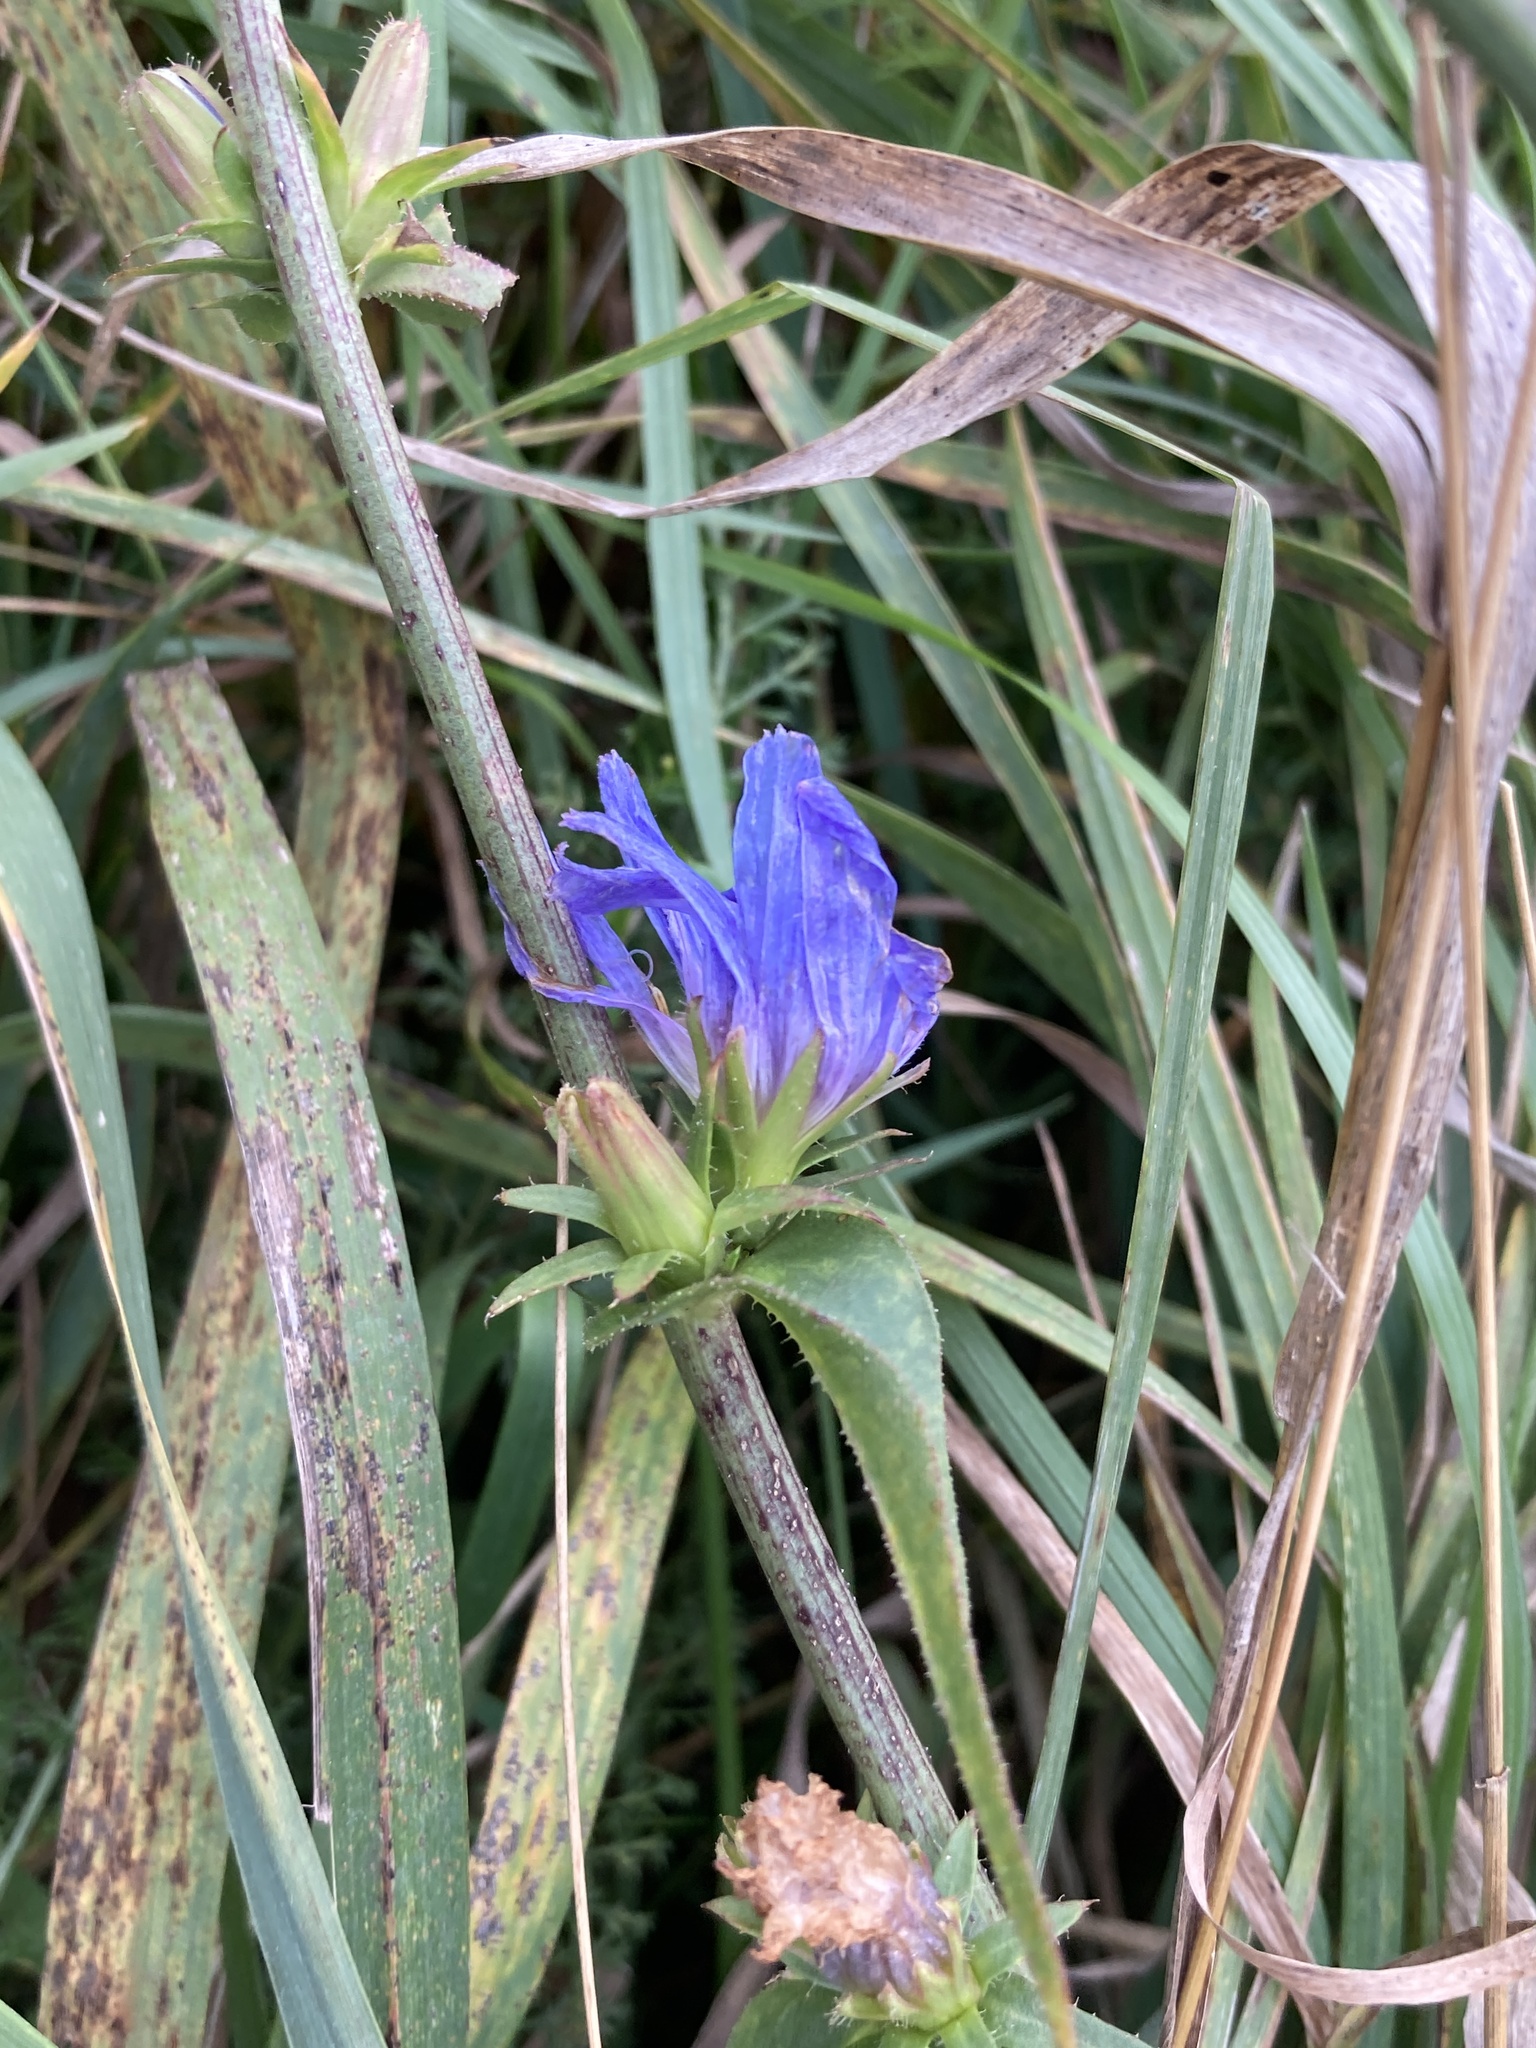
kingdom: Plantae
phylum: Tracheophyta
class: Magnoliopsida
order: Asterales
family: Asteraceae
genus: Cichorium
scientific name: Cichorium intybus
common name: Chicory
